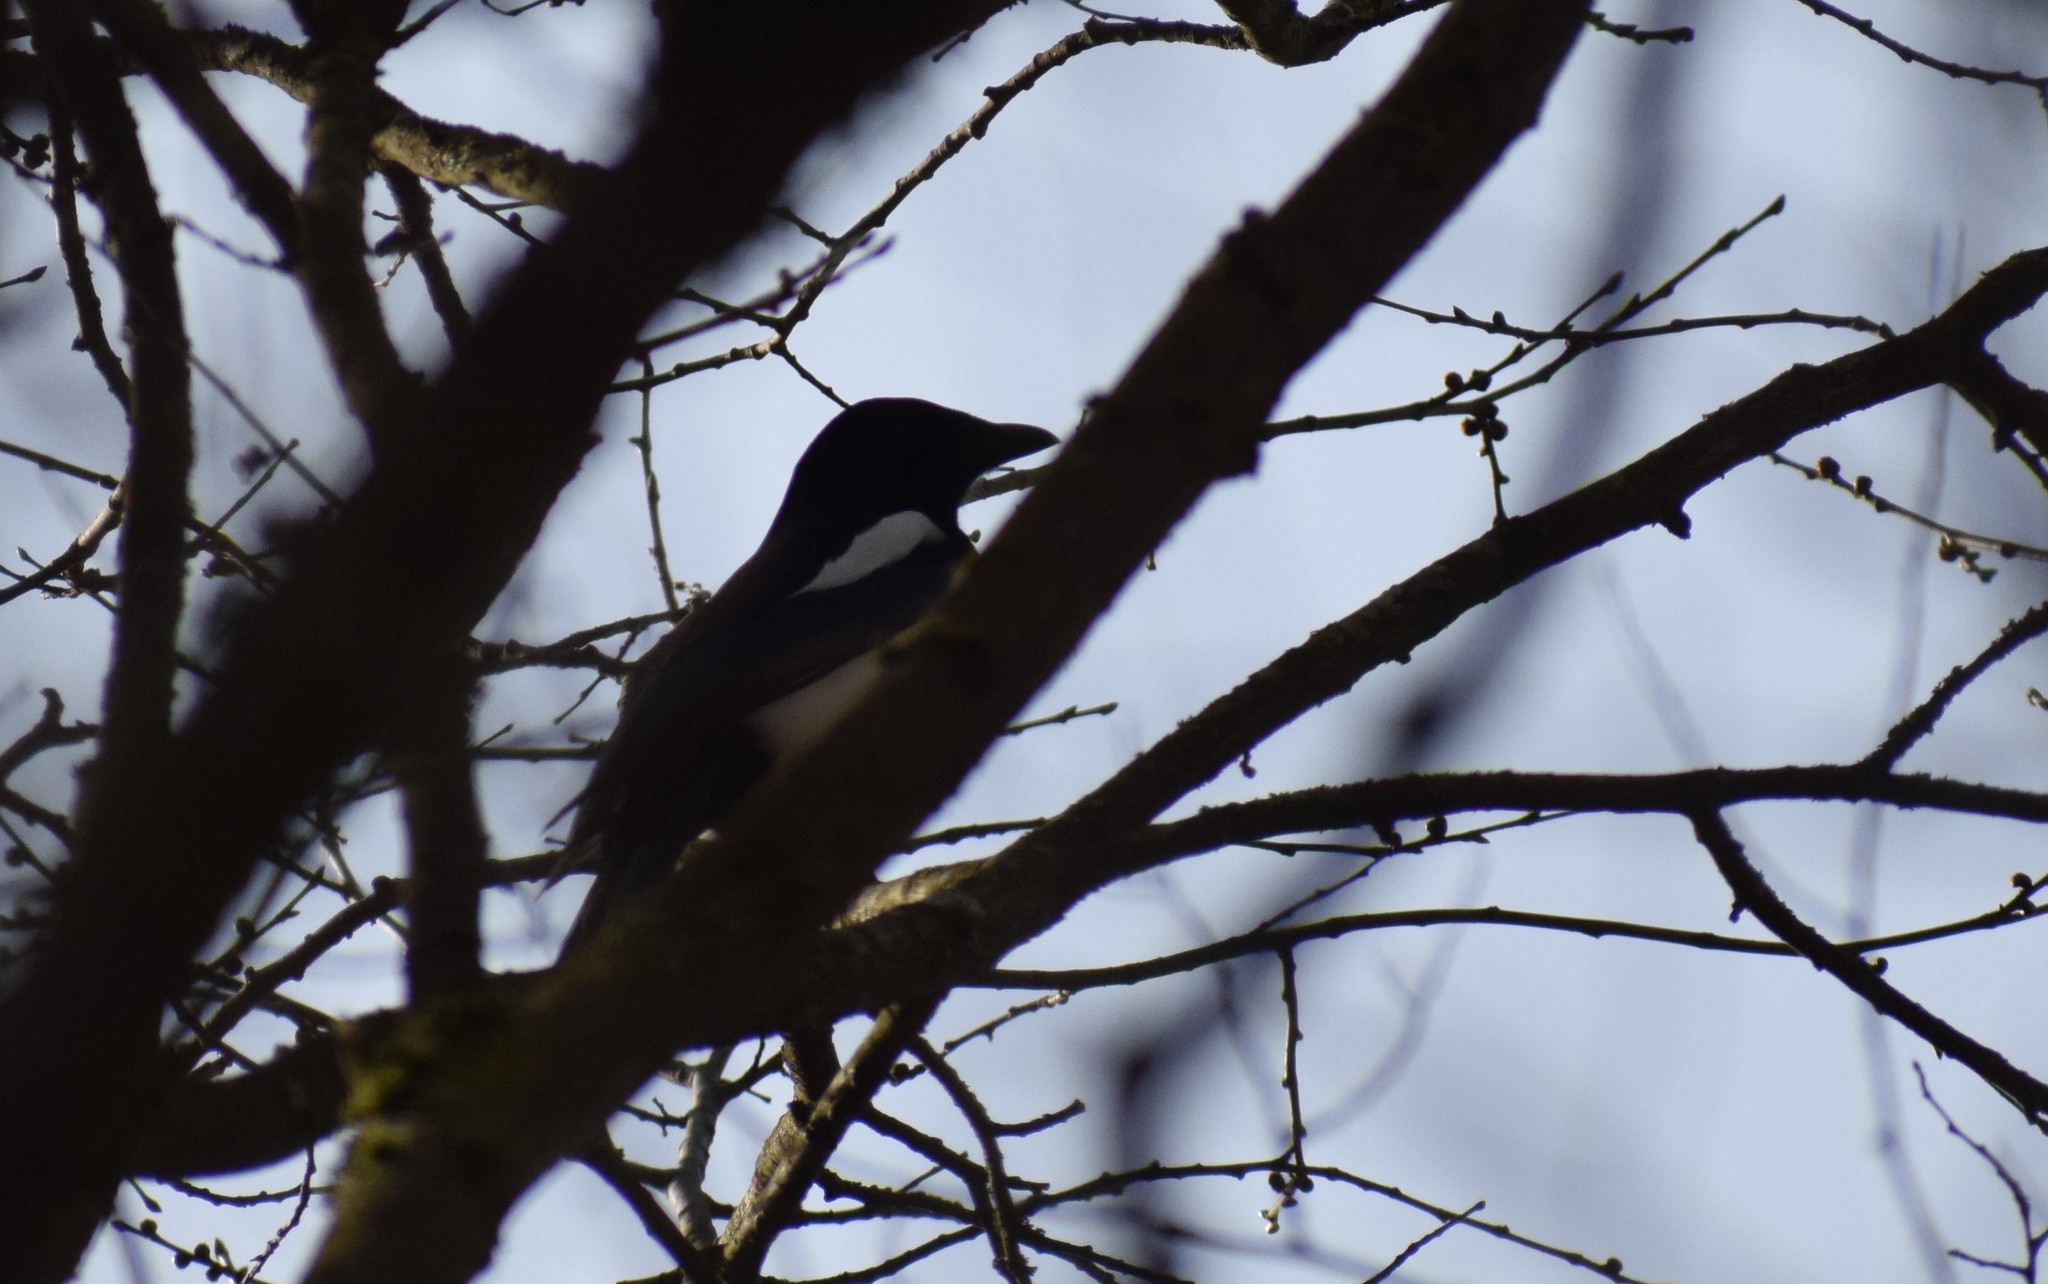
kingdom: Animalia
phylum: Chordata
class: Aves
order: Passeriformes
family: Corvidae
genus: Pica
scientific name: Pica pica
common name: Eurasian magpie
